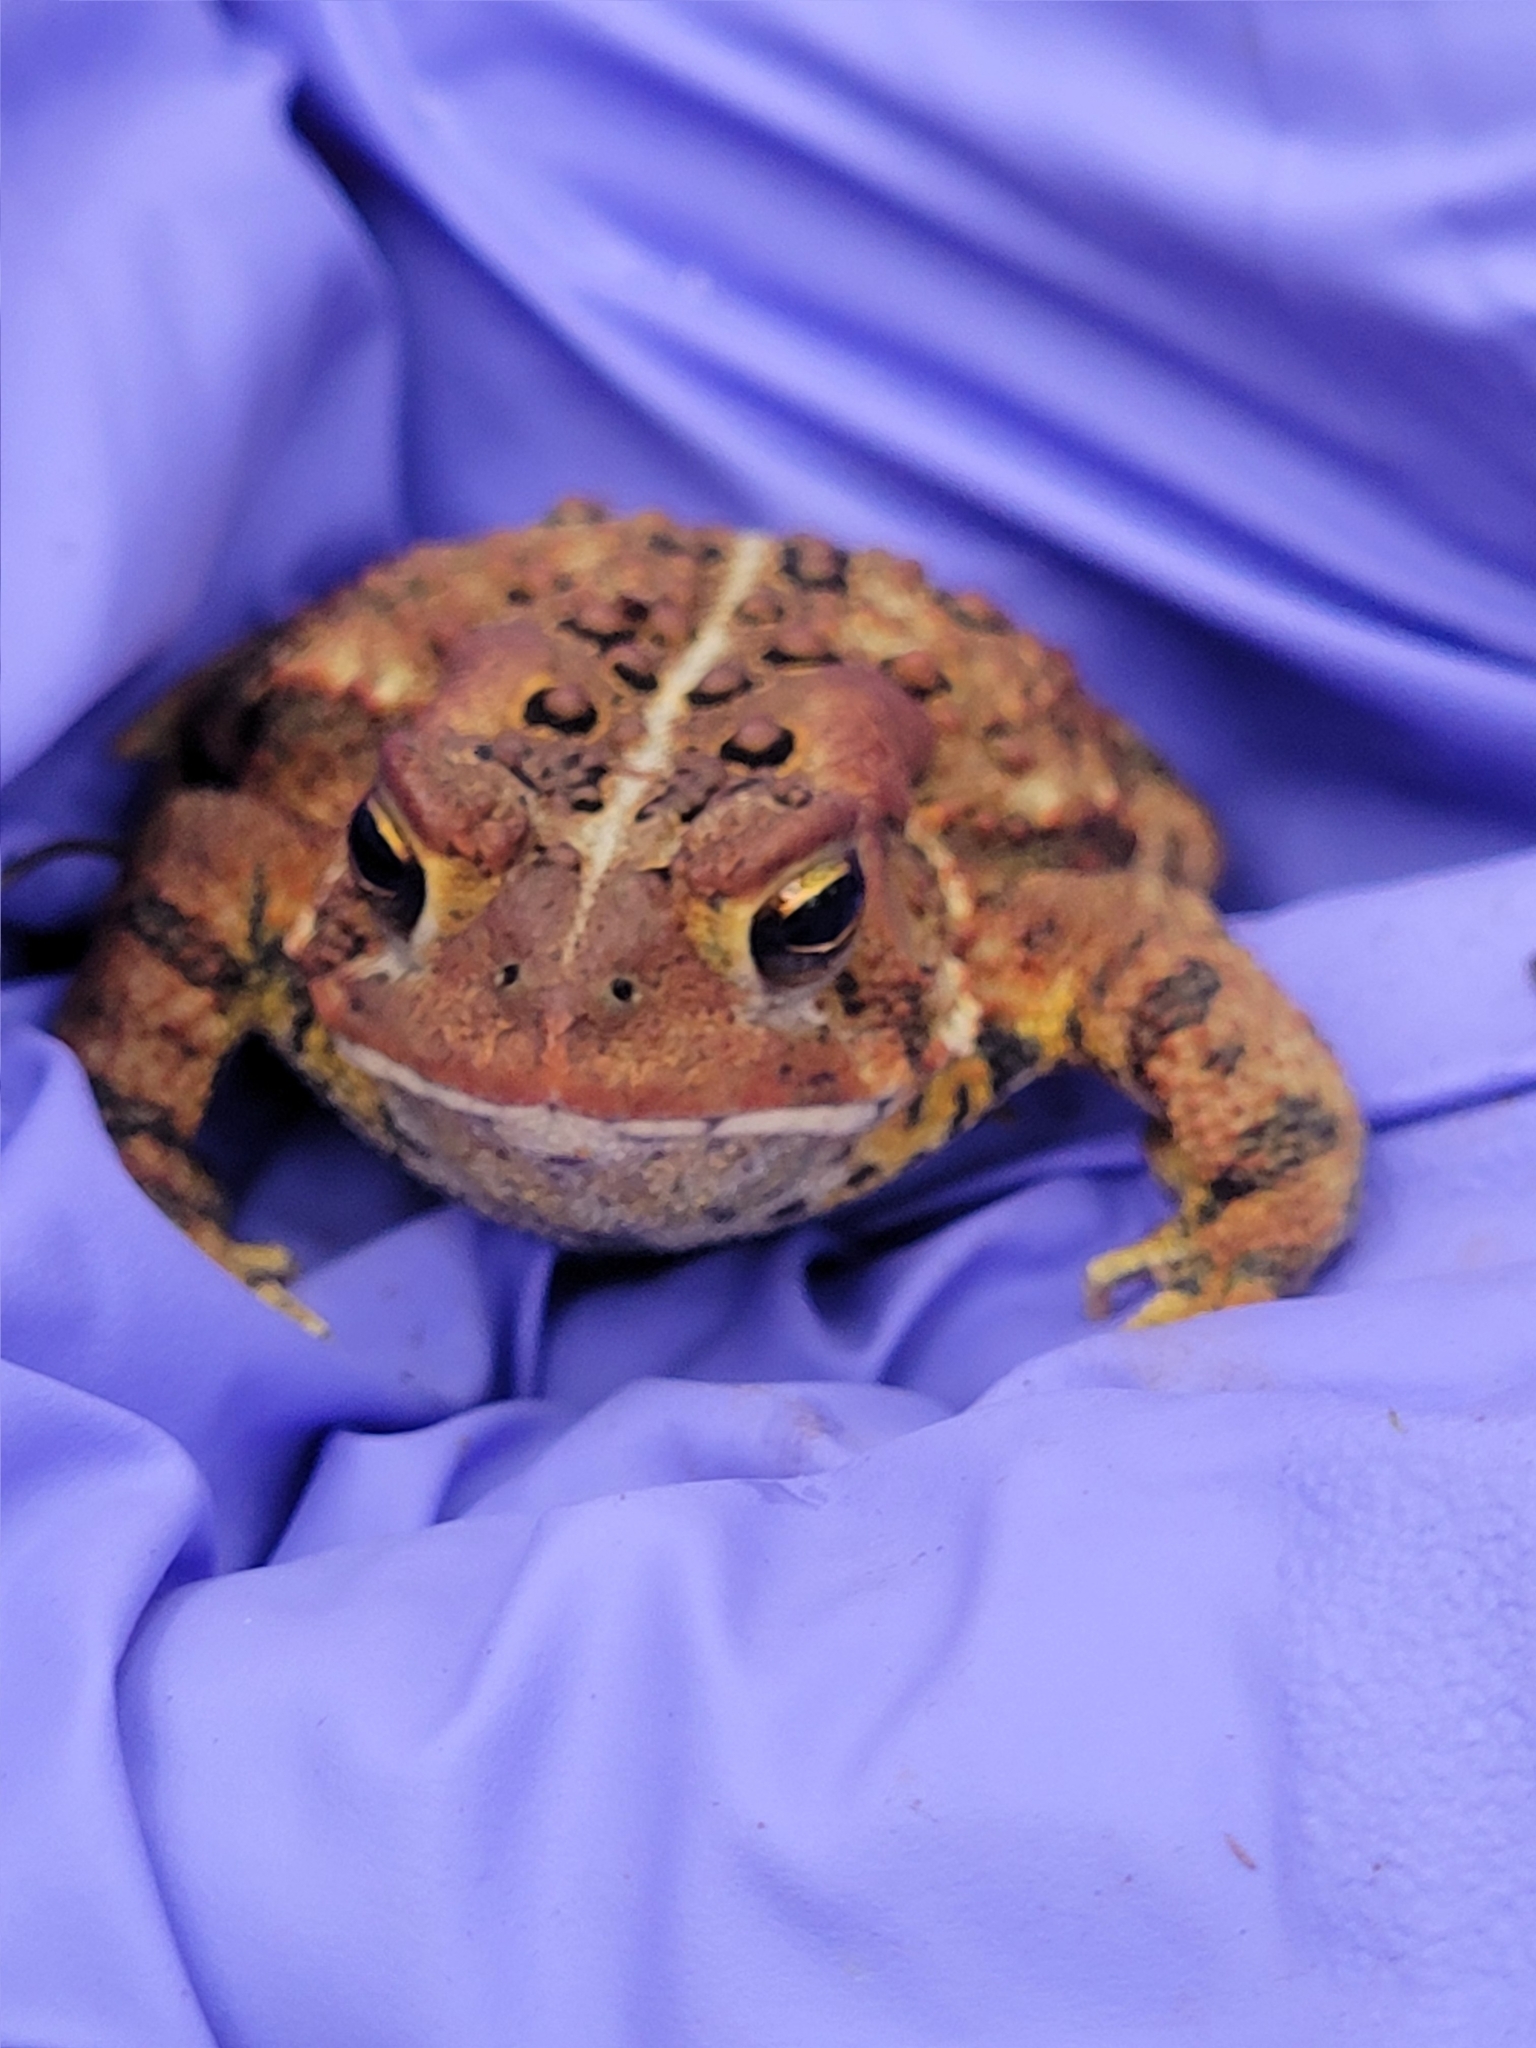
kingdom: Animalia
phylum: Chordata
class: Amphibia
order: Anura
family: Bufonidae
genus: Anaxyrus
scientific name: Anaxyrus americanus
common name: American toad
